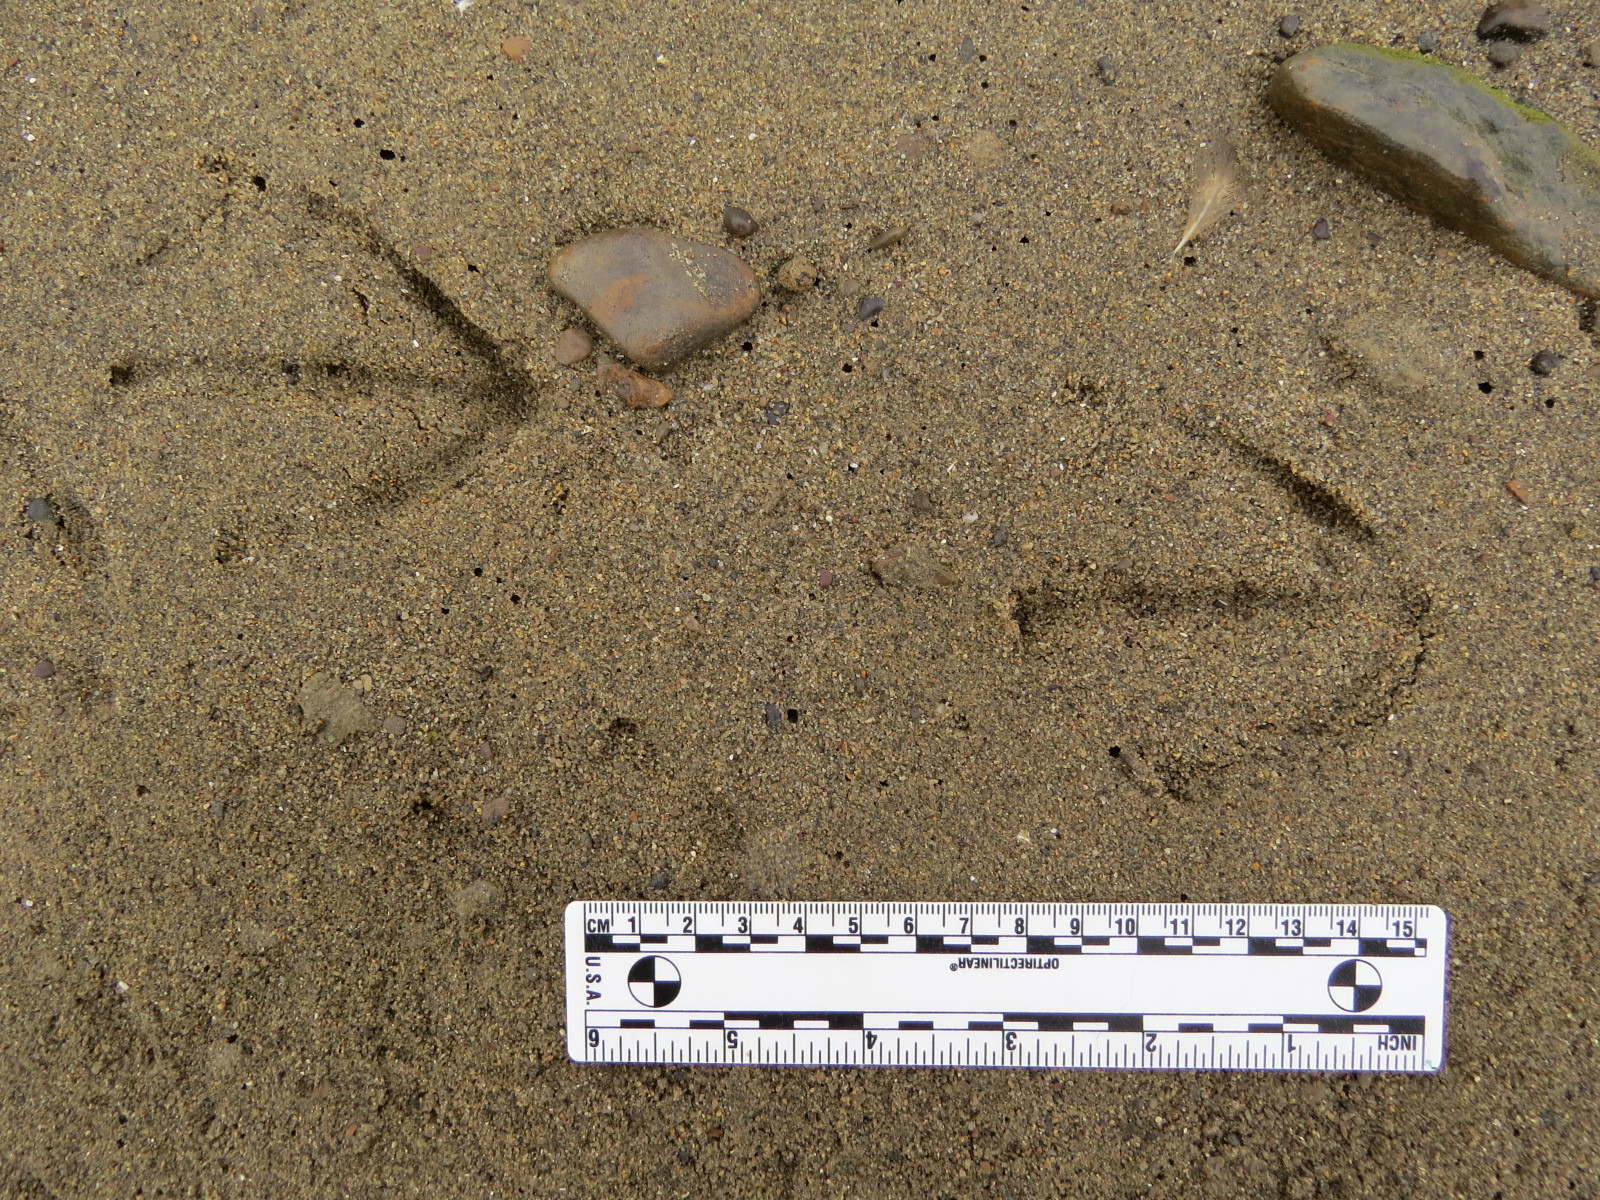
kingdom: Animalia
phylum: Chordata
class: Aves
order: Anseriformes
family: Anatidae
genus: Mergus
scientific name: Mergus merganser
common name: Common merganser
